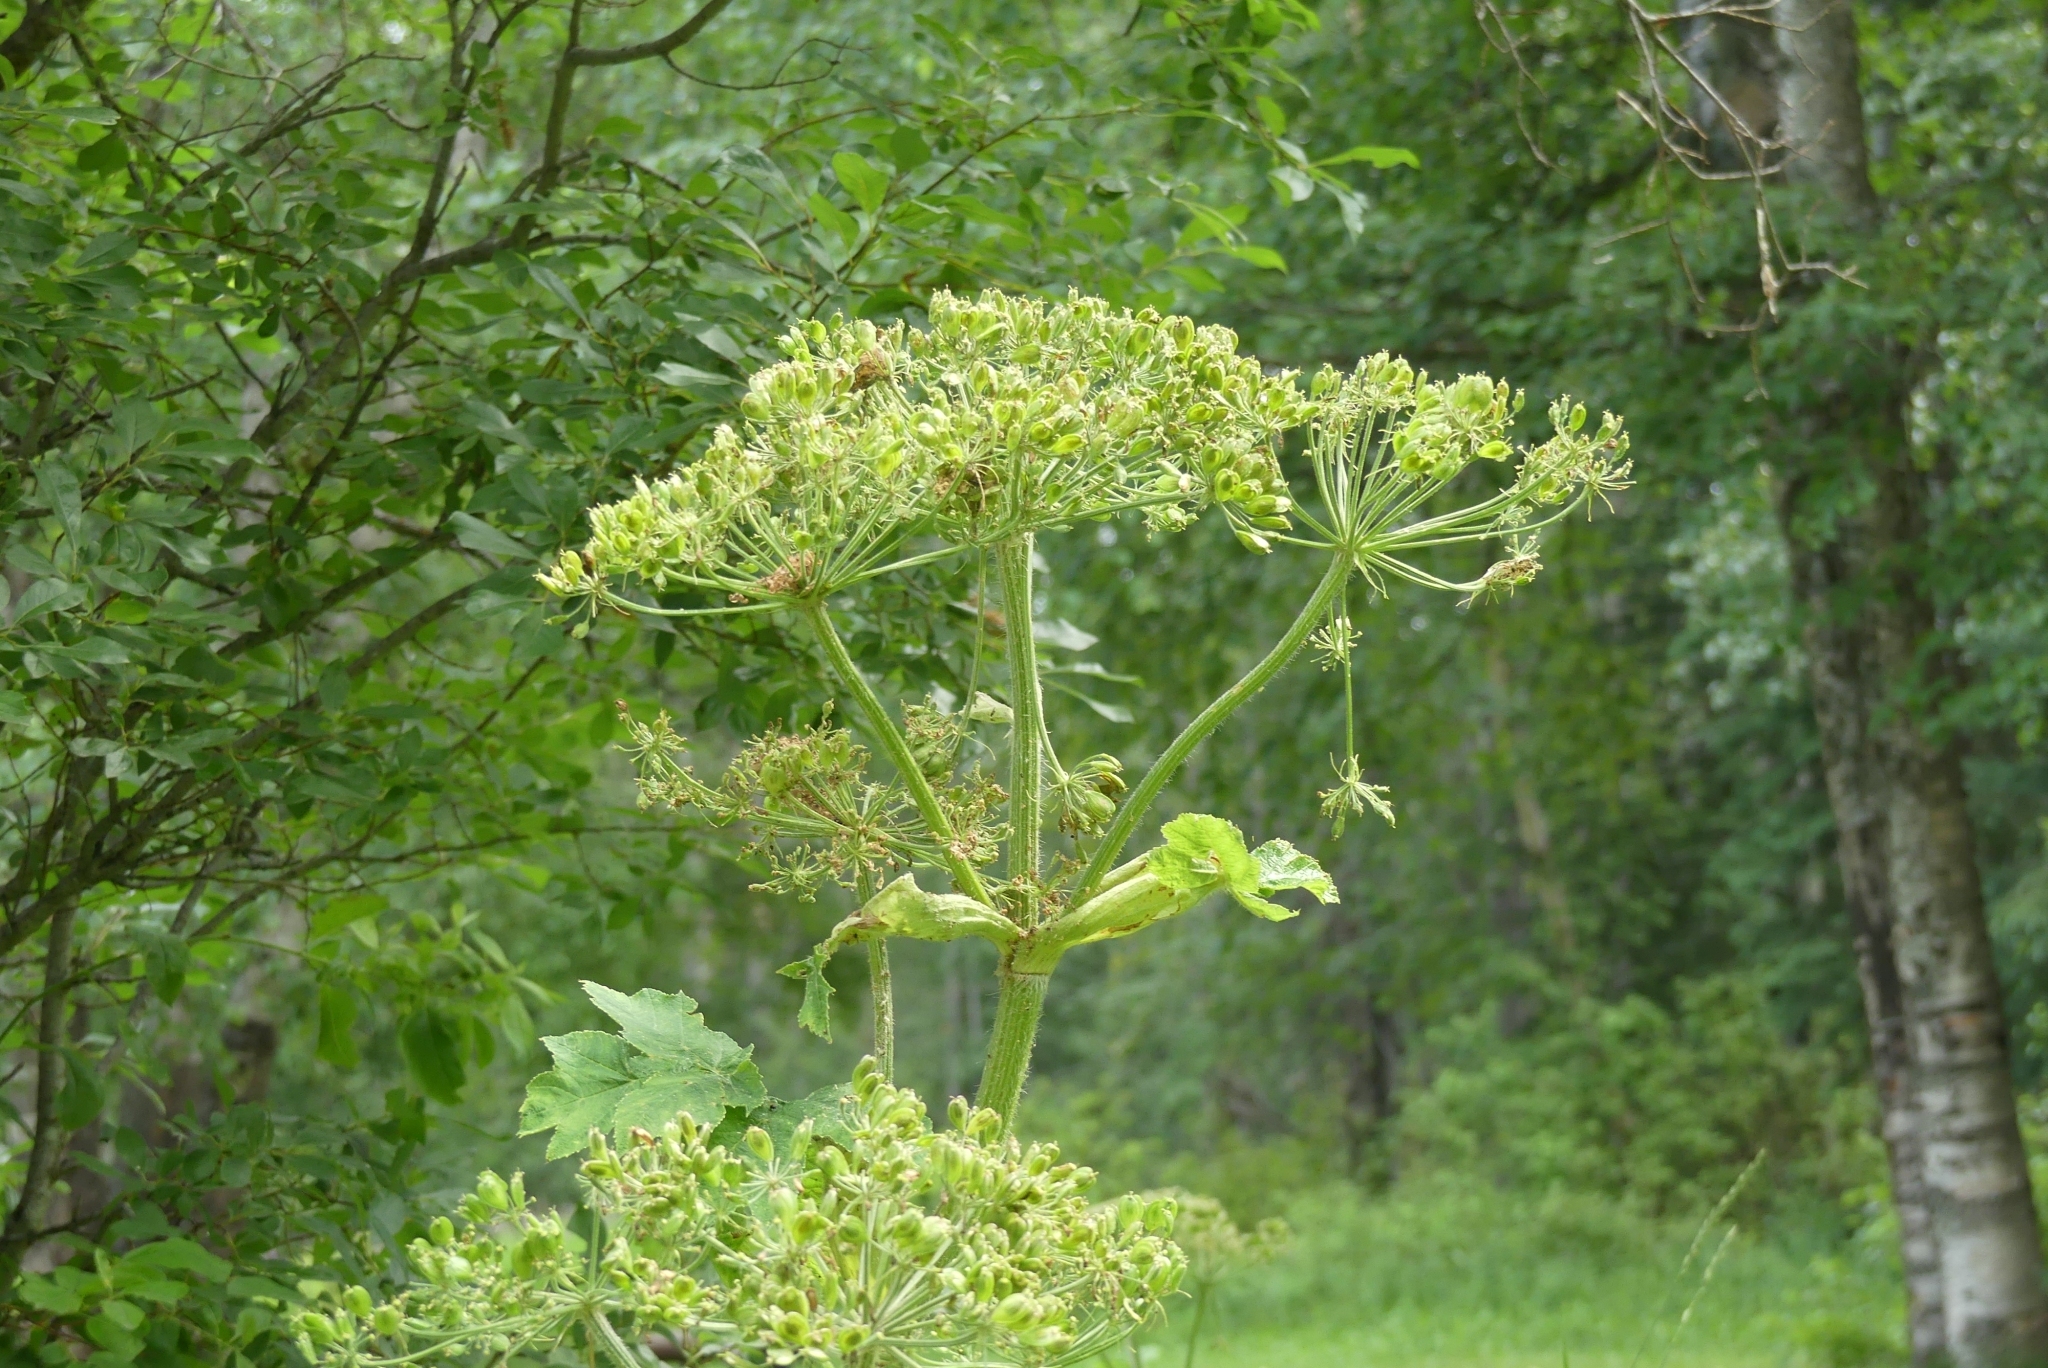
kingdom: Plantae
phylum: Tracheophyta
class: Magnoliopsida
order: Apiales
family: Apiaceae
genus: Heracleum
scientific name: Heracleum maximum
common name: American cow parsnip
